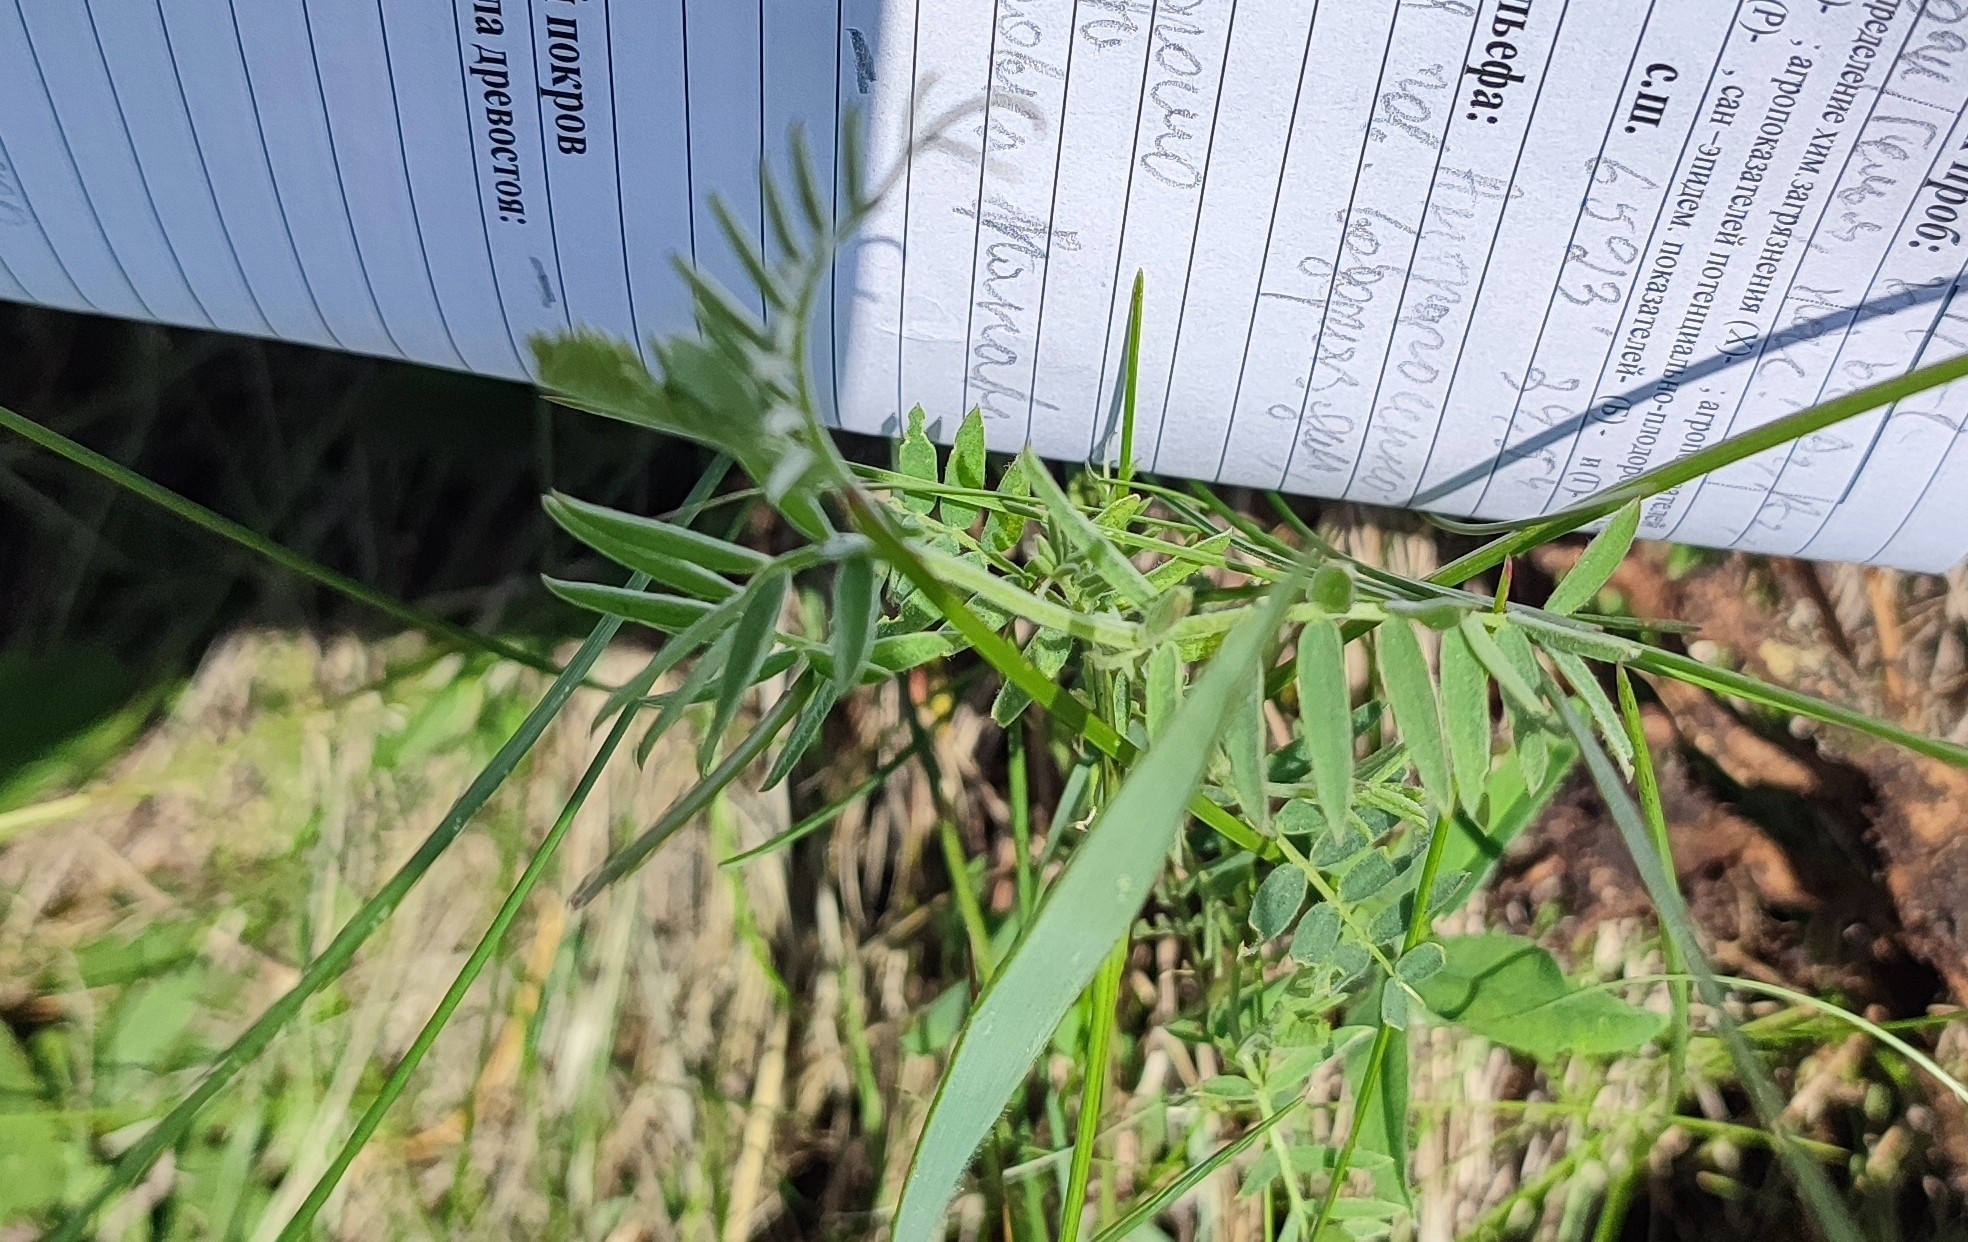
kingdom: Plantae
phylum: Tracheophyta
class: Magnoliopsida
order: Fabales
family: Fabaceae
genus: Vicia
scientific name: Vicia cracca
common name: Bird vetch
